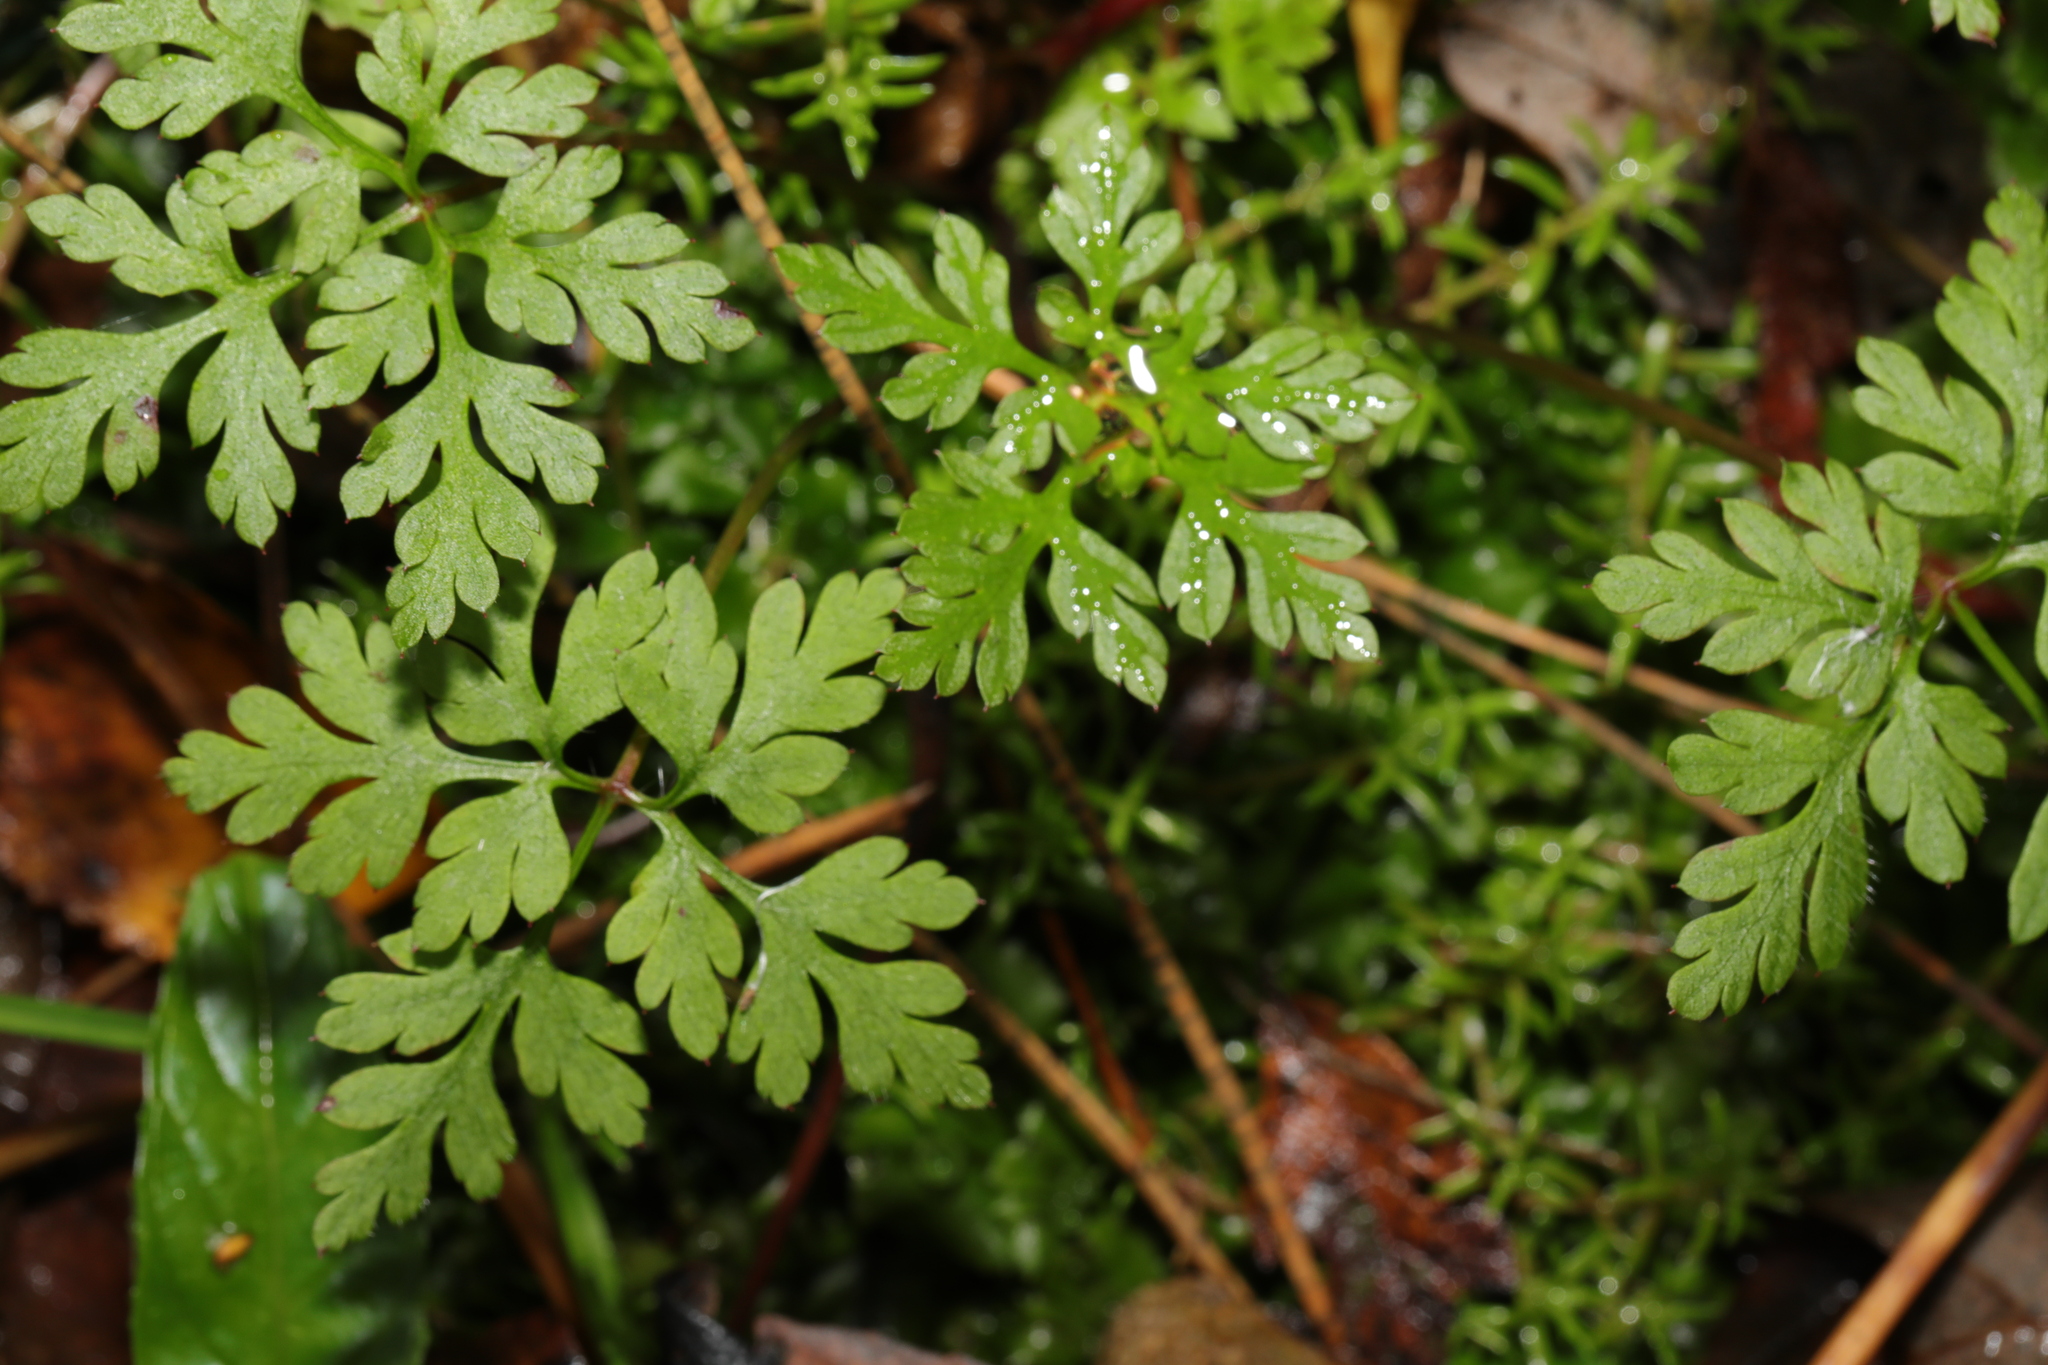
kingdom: Plantae
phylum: Tracheophyta
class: Magnoliopsida
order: Geraniales
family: Geraniaceae
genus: Geranium
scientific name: Geranium robertianum
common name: Herb-robert
